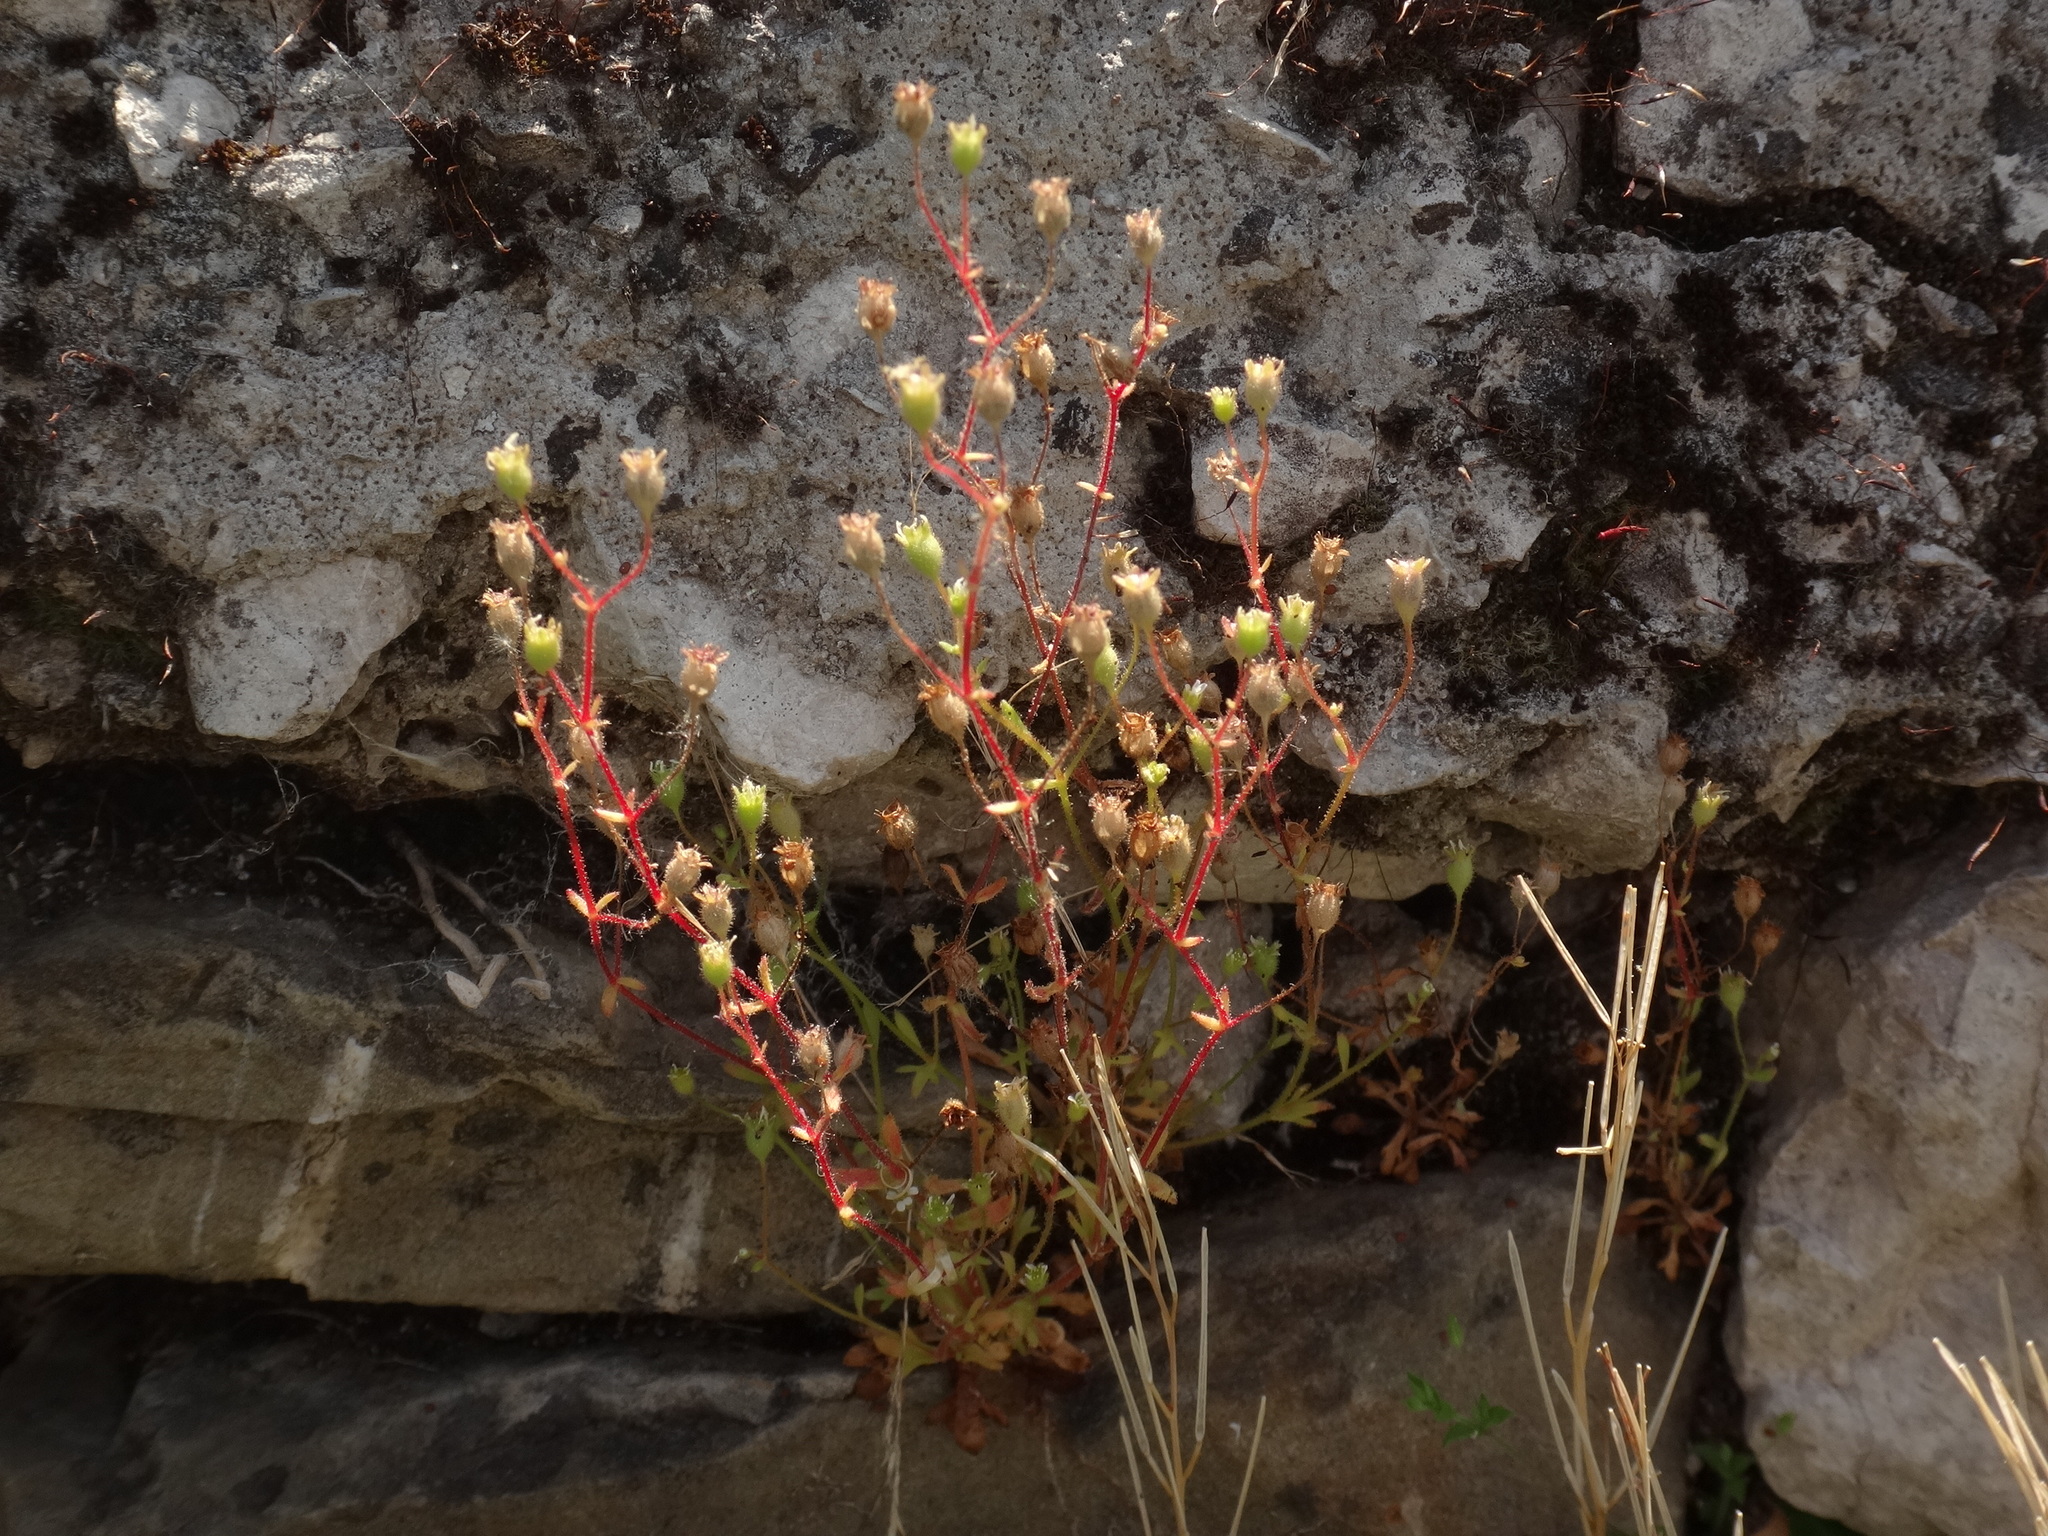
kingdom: Plantae
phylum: Tracheophyta
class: Magnoliopsida
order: Saxifragales
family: Saxifragaceae
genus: Saxifraga
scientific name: Saxifraga tridactylites
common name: Rue-leaved saxifrage
